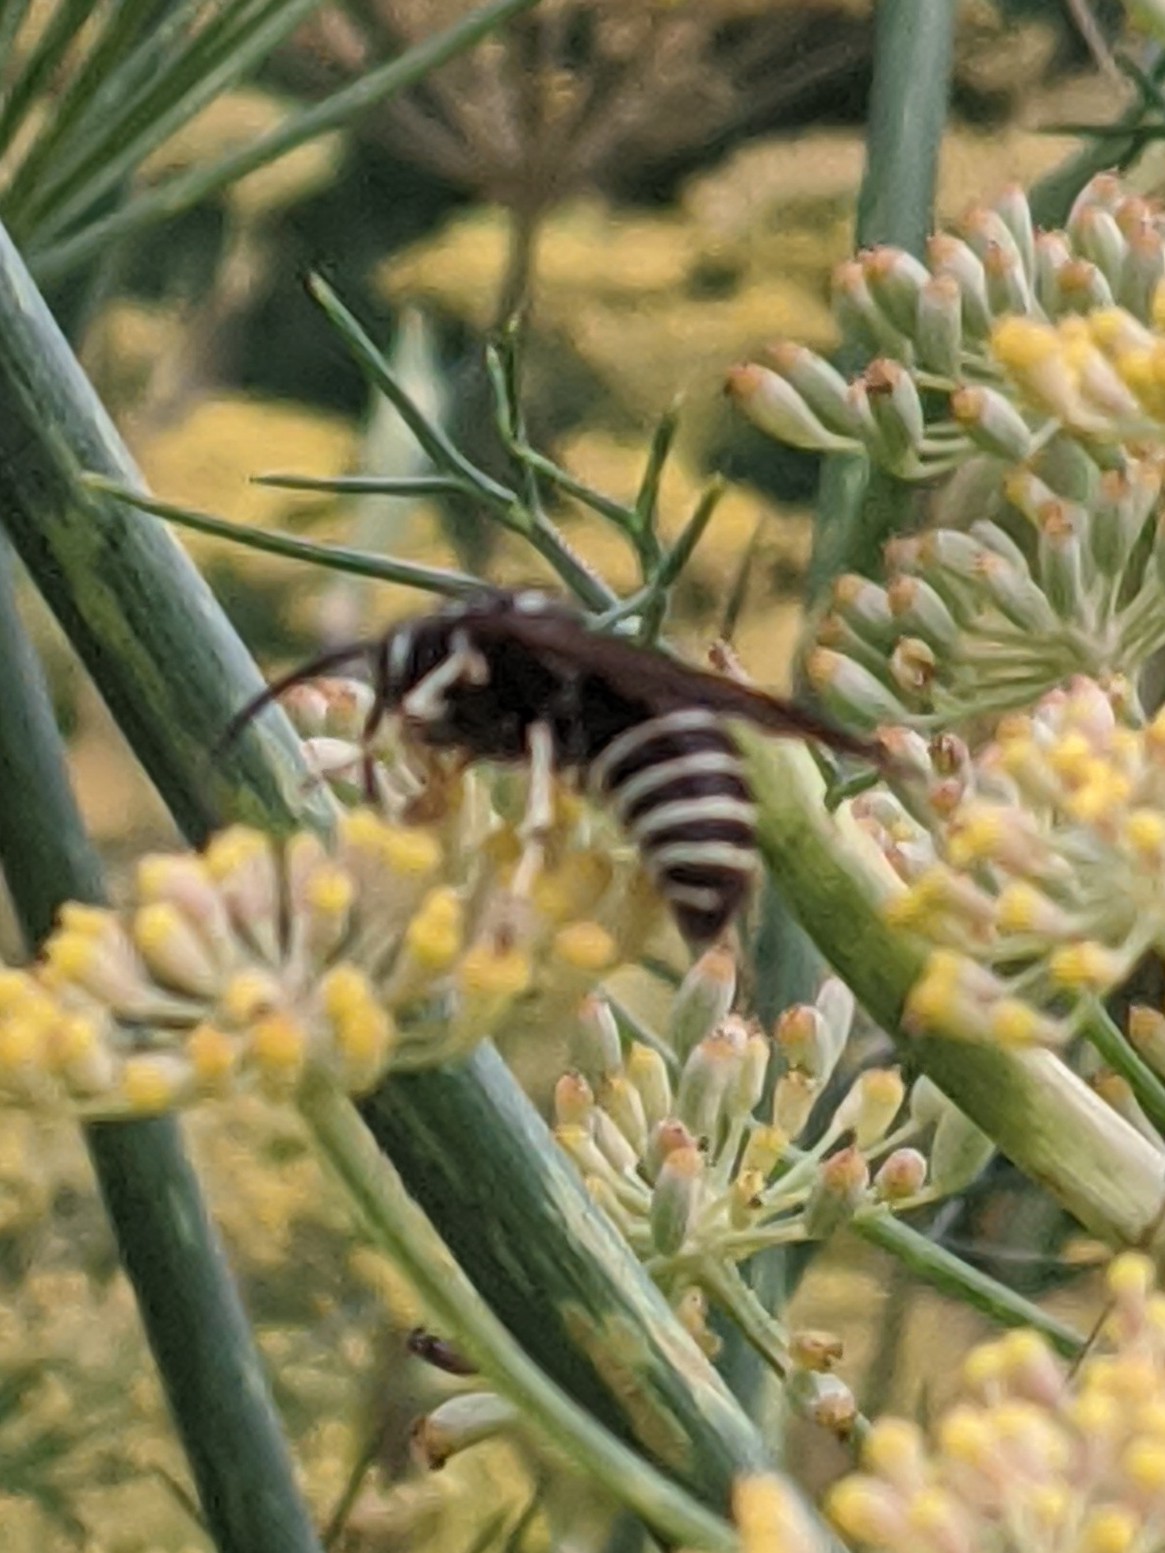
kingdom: Animalia
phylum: Arthropoda
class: Insecta
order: Hymenoptera
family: Vespidae
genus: Dolichovespula
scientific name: Dolichovespula adulterina
